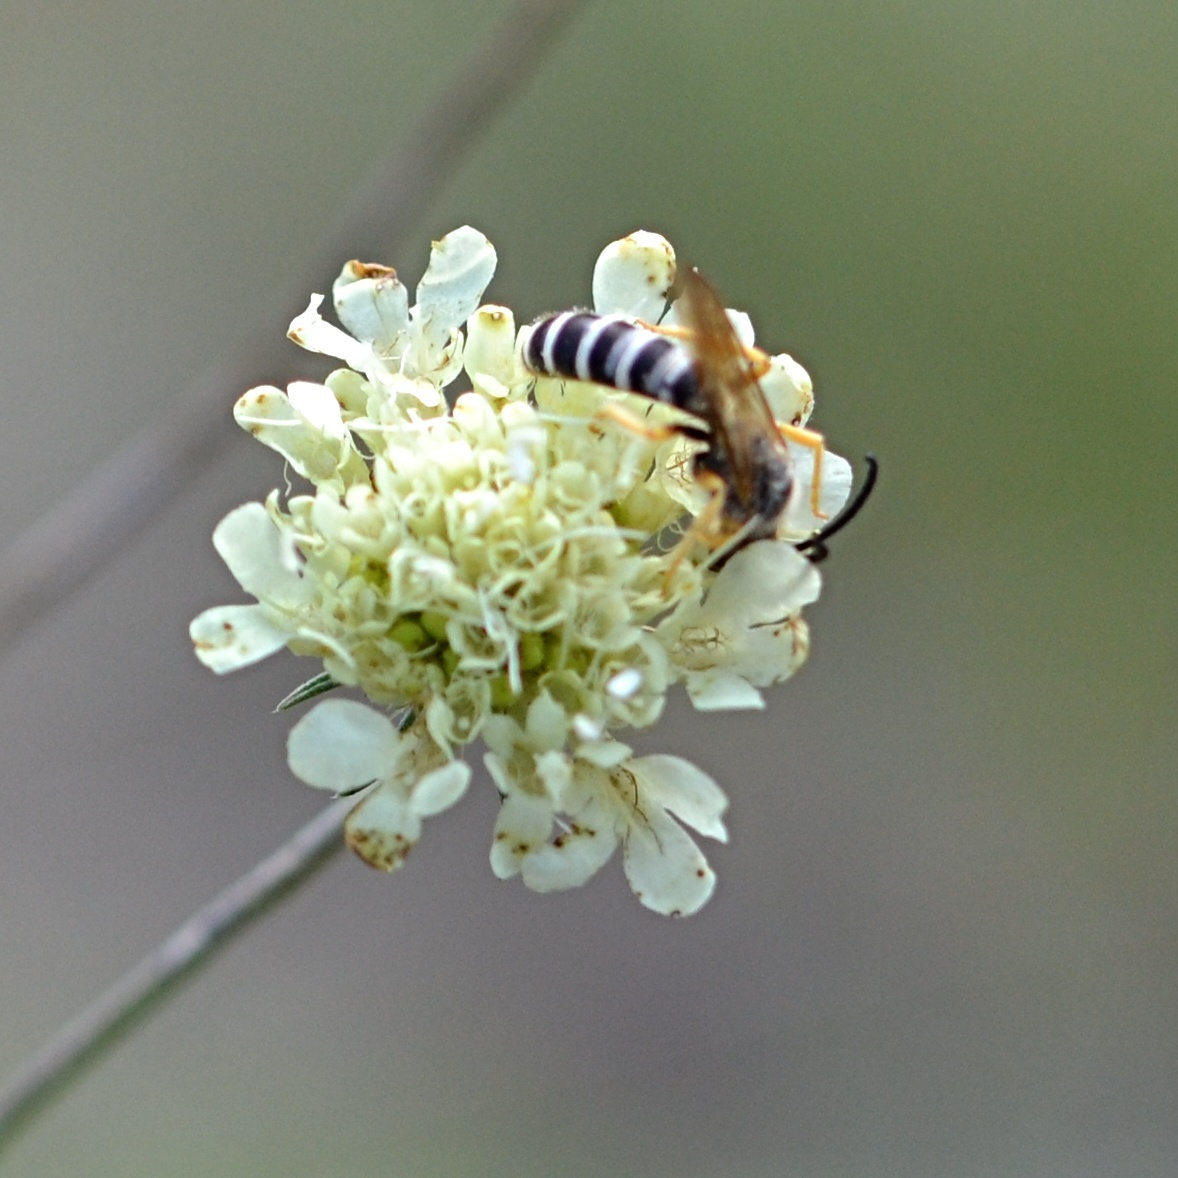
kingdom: Animalia
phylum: Arthropoda
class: Insecta
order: Hymenoptera
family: Halictidae
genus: Halictus
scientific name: Halictus scabiosae
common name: Great banded furrow bee
